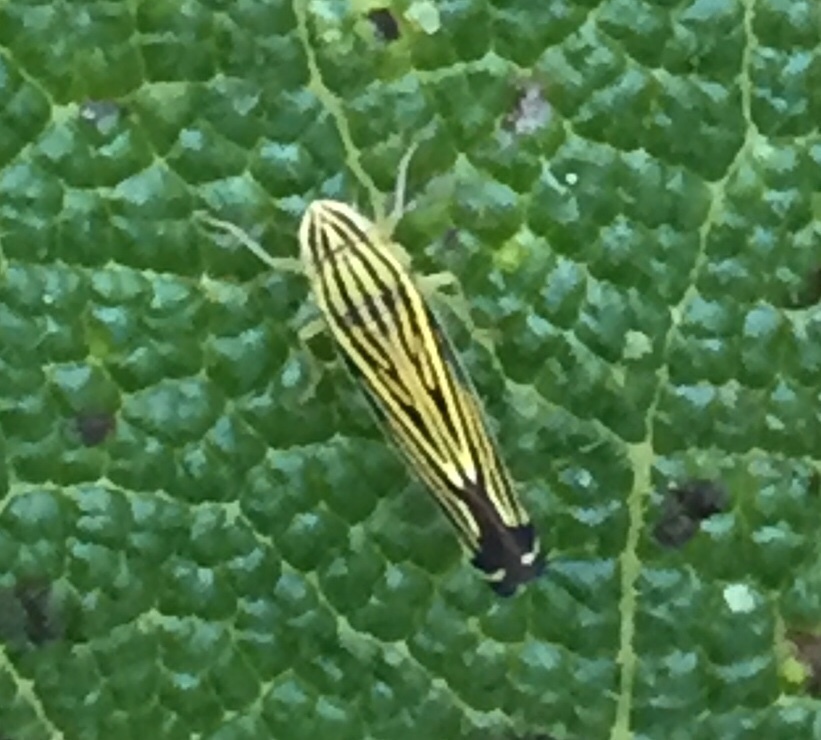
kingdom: Animalia
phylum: Arthropoda
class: Insecta
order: Hemiptera
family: Cicadellidae
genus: Sibovia
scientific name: Sibovia occatoria
